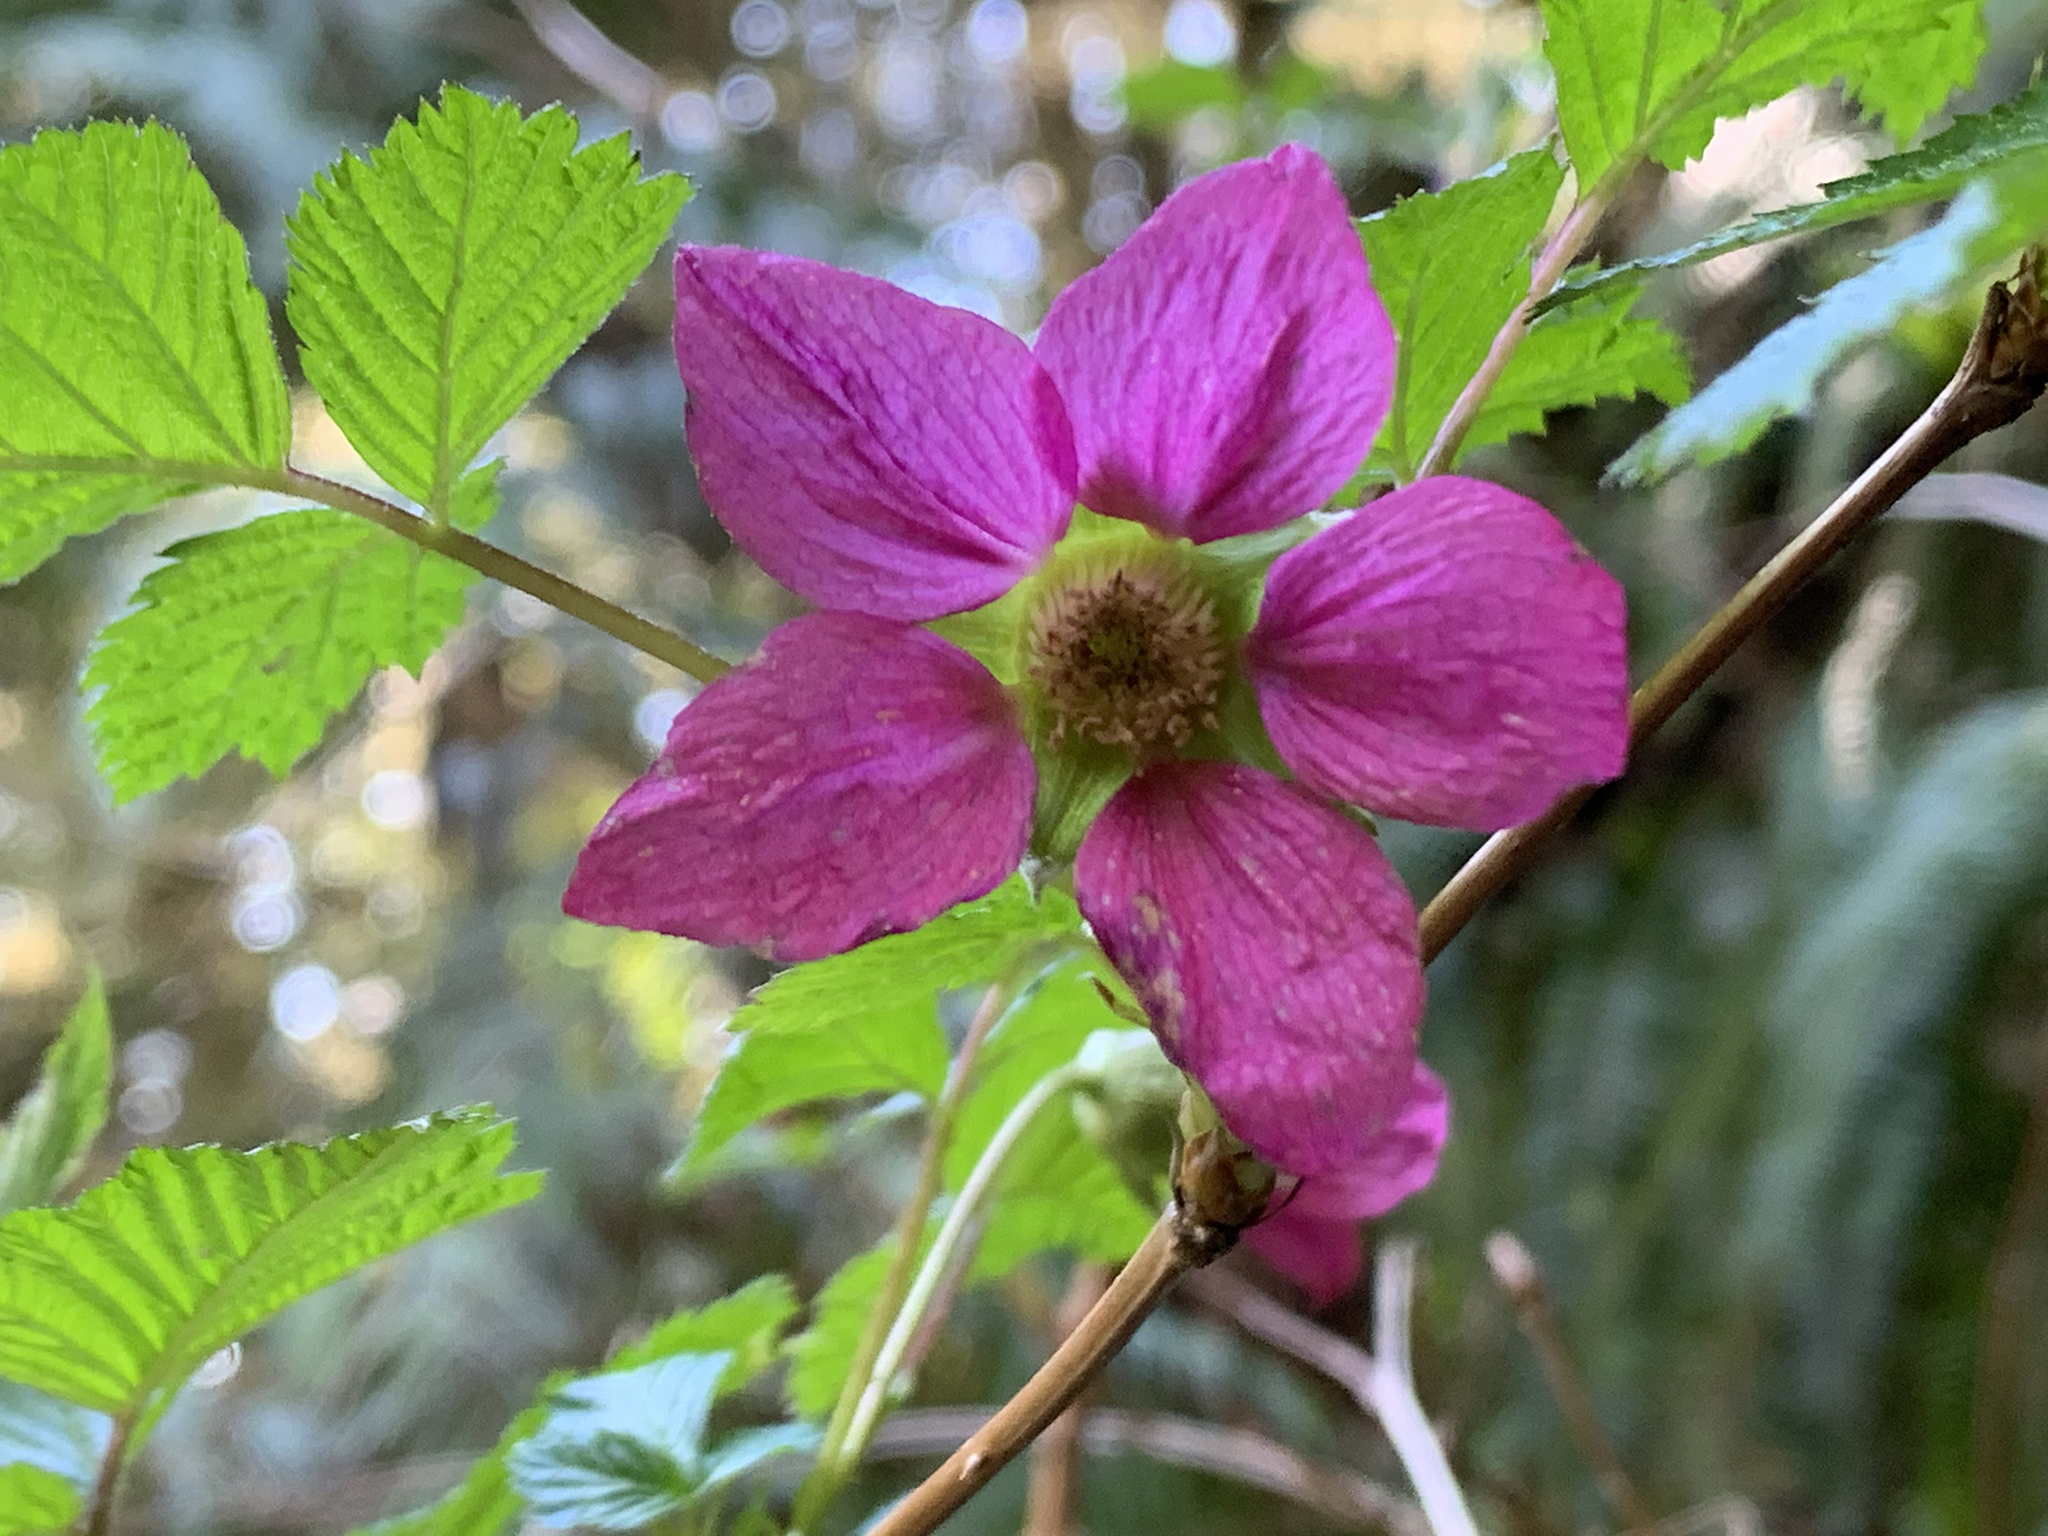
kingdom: Plantae
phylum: Tracheophyta
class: Magnoliopsida
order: Rosales
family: Rosaceae
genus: Rubus
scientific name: Rubus spectabilis
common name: Salmonberry
